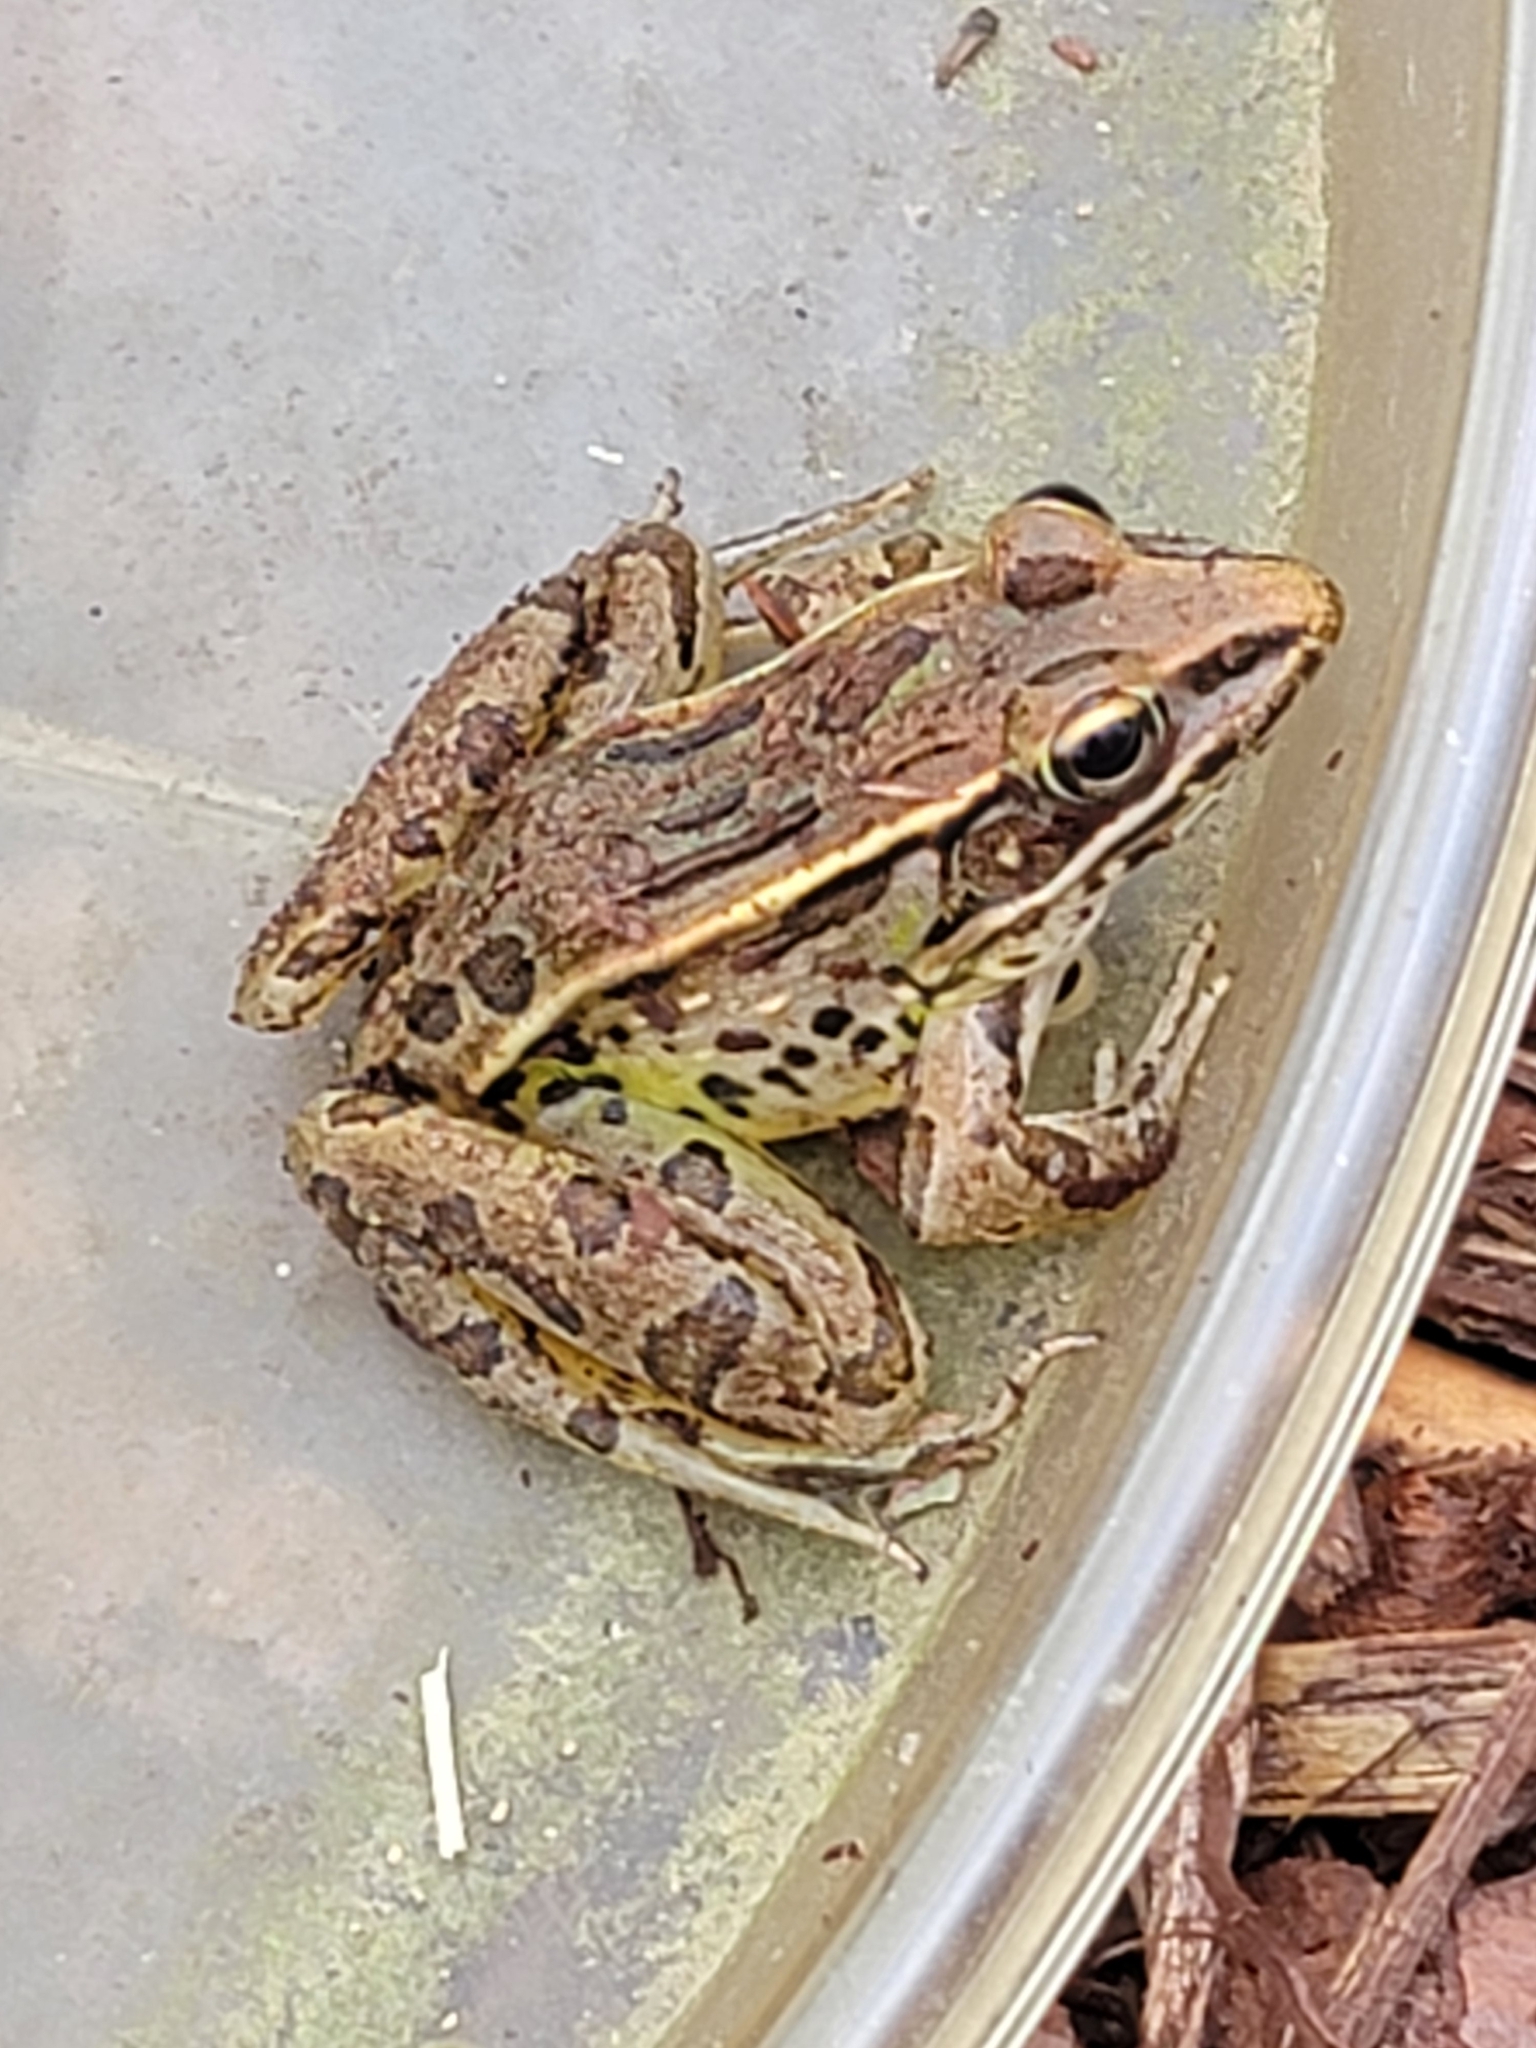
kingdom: Animalia
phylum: Chordata
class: Amphibia
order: Anura
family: Ranidae
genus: Lithobates
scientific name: Lithobates sphenocephalus
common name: Southern leopard frog
